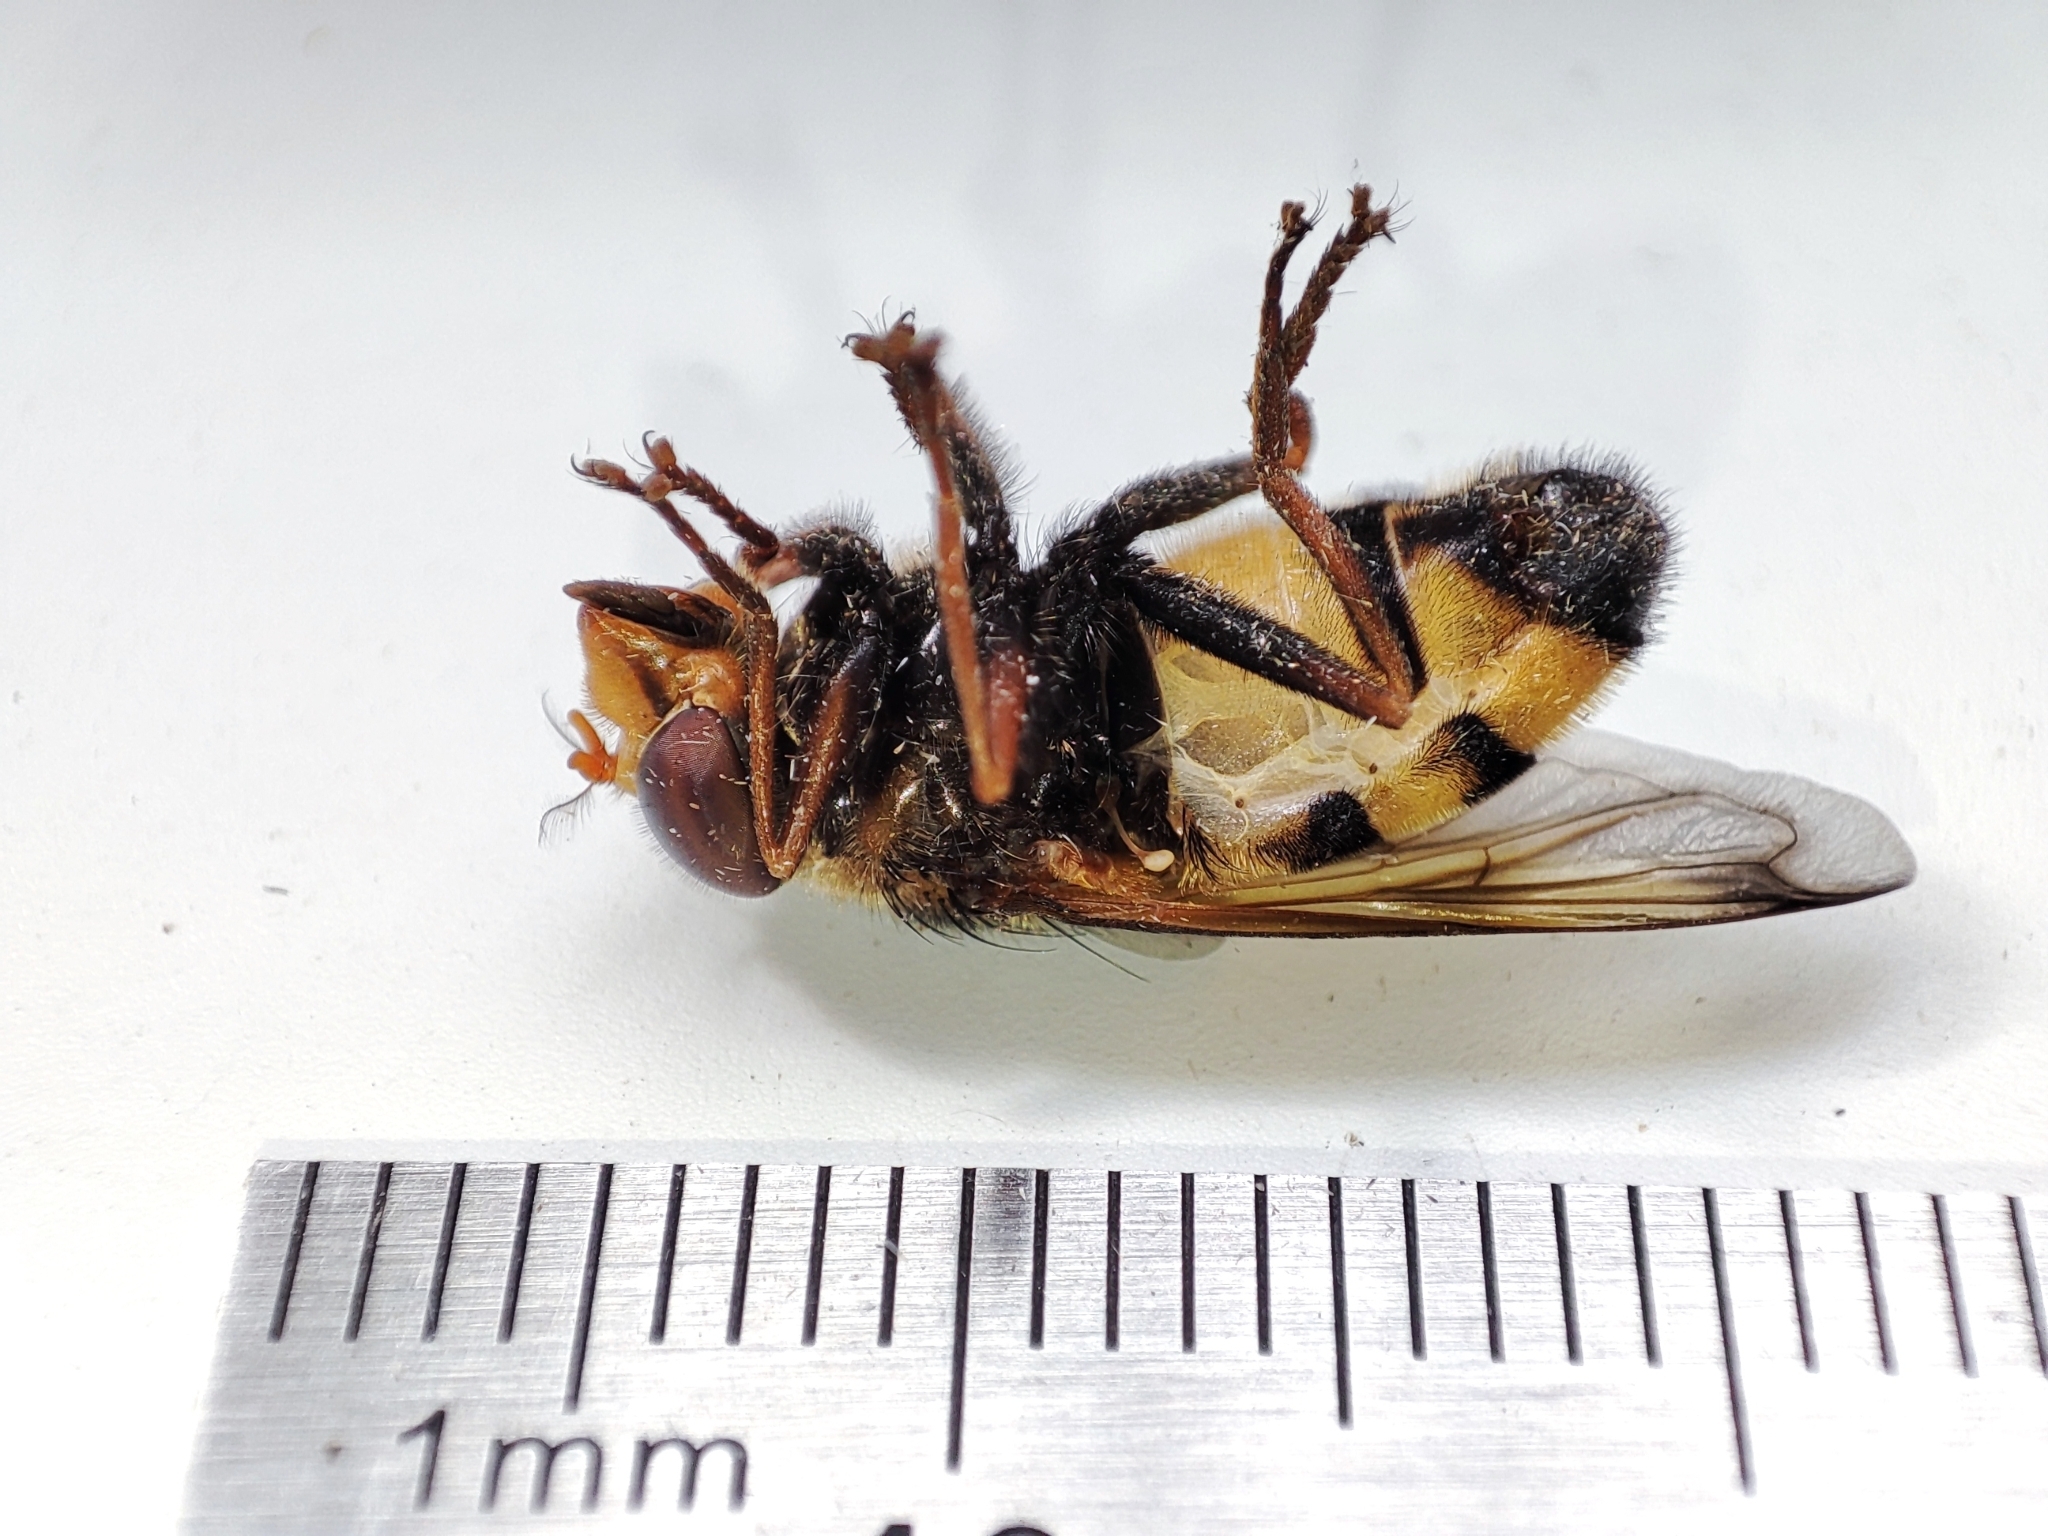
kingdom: Animalia
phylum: Arthropoda
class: Insecta
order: Diptera
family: Syrphidae
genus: Volucella
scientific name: Volucella inanis
